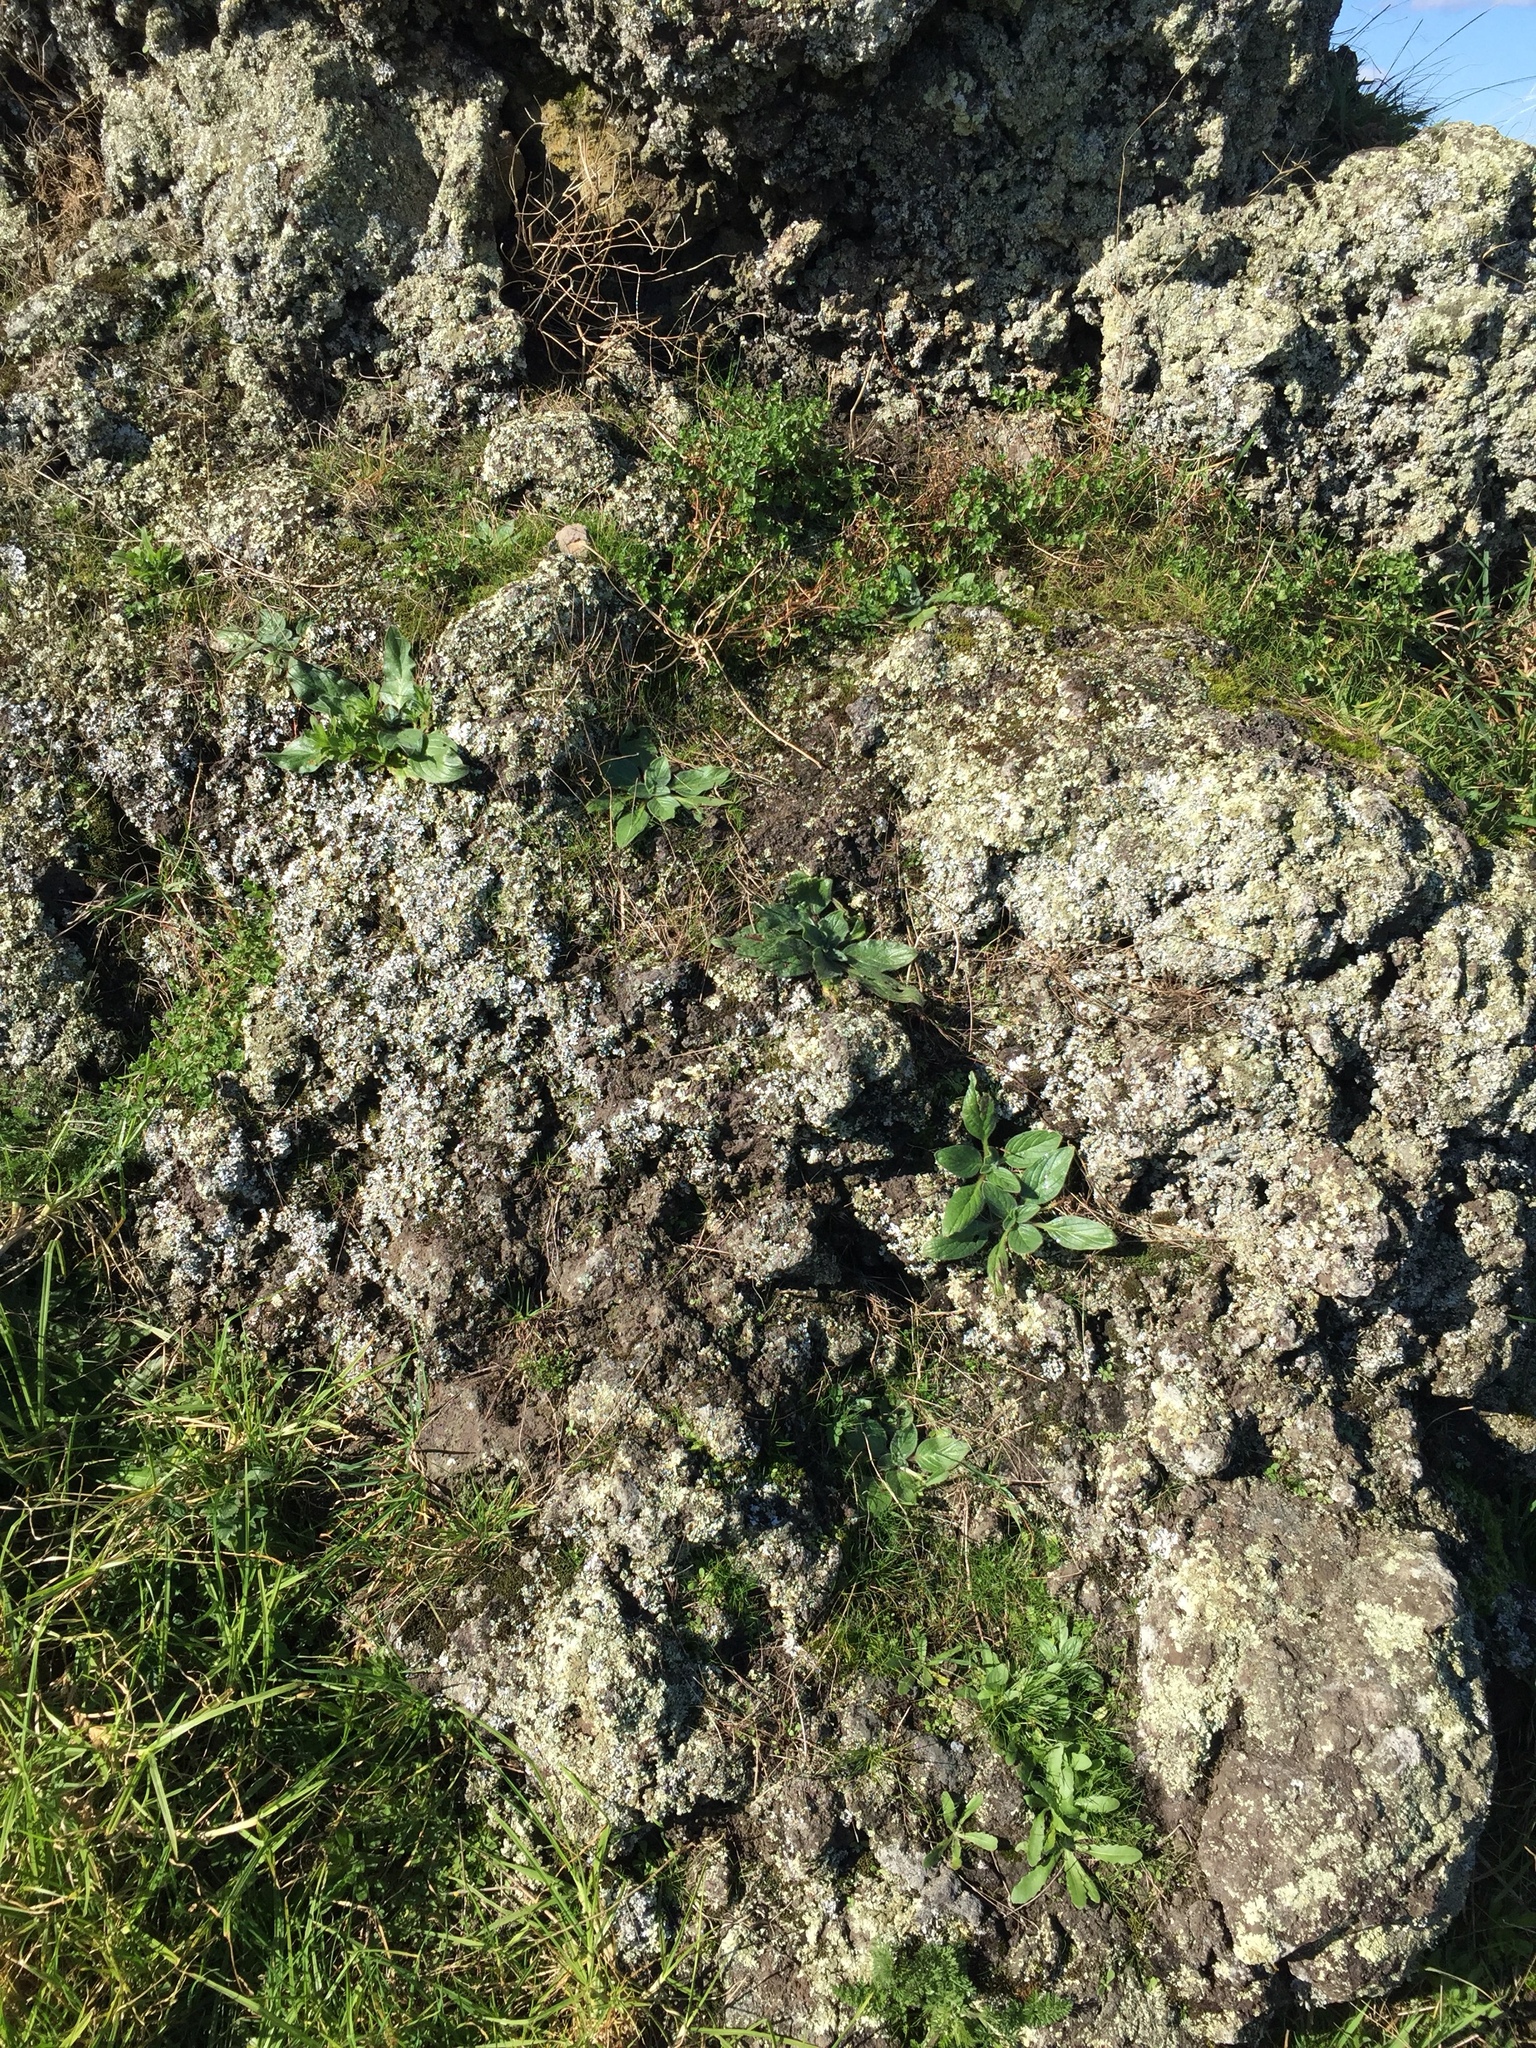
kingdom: Plantae
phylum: Tracheophyta
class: Magnoliopsida
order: Boraginales
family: Boraginaceae
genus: Echium
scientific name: Echium plantagineum
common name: Purple viper's-bugloss
